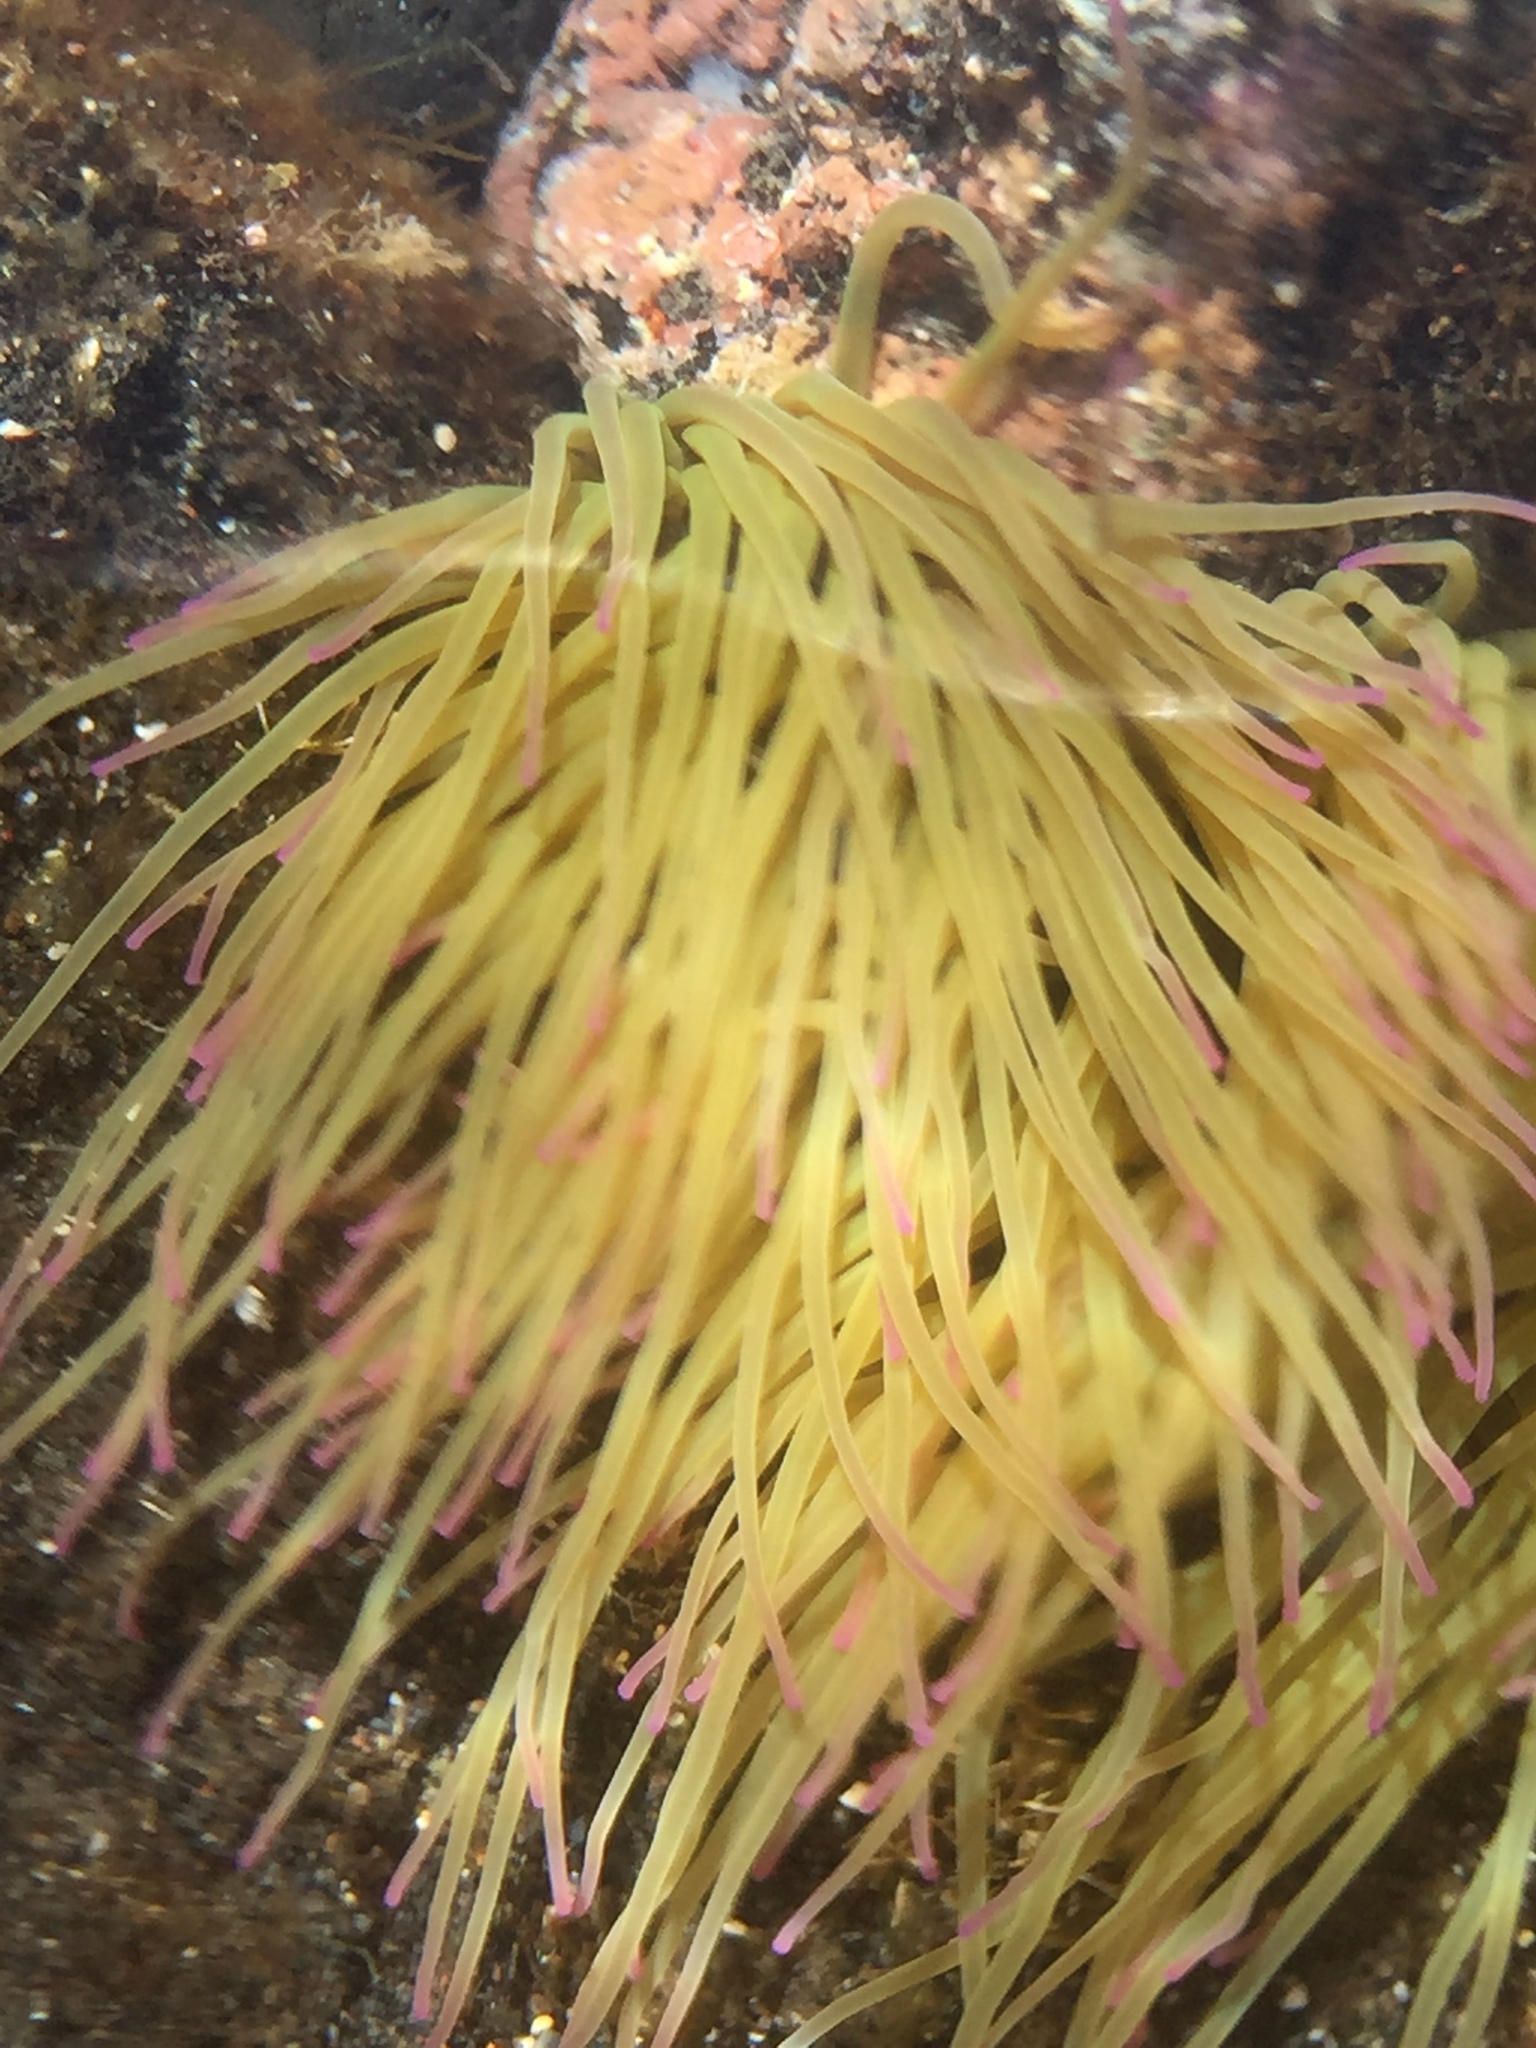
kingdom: Animalia
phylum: Cnidaria
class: Anthozoa
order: Actiniaria
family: Actiniidae
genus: Anemonia
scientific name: Anemonia viridis
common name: Snakelocks anemone
